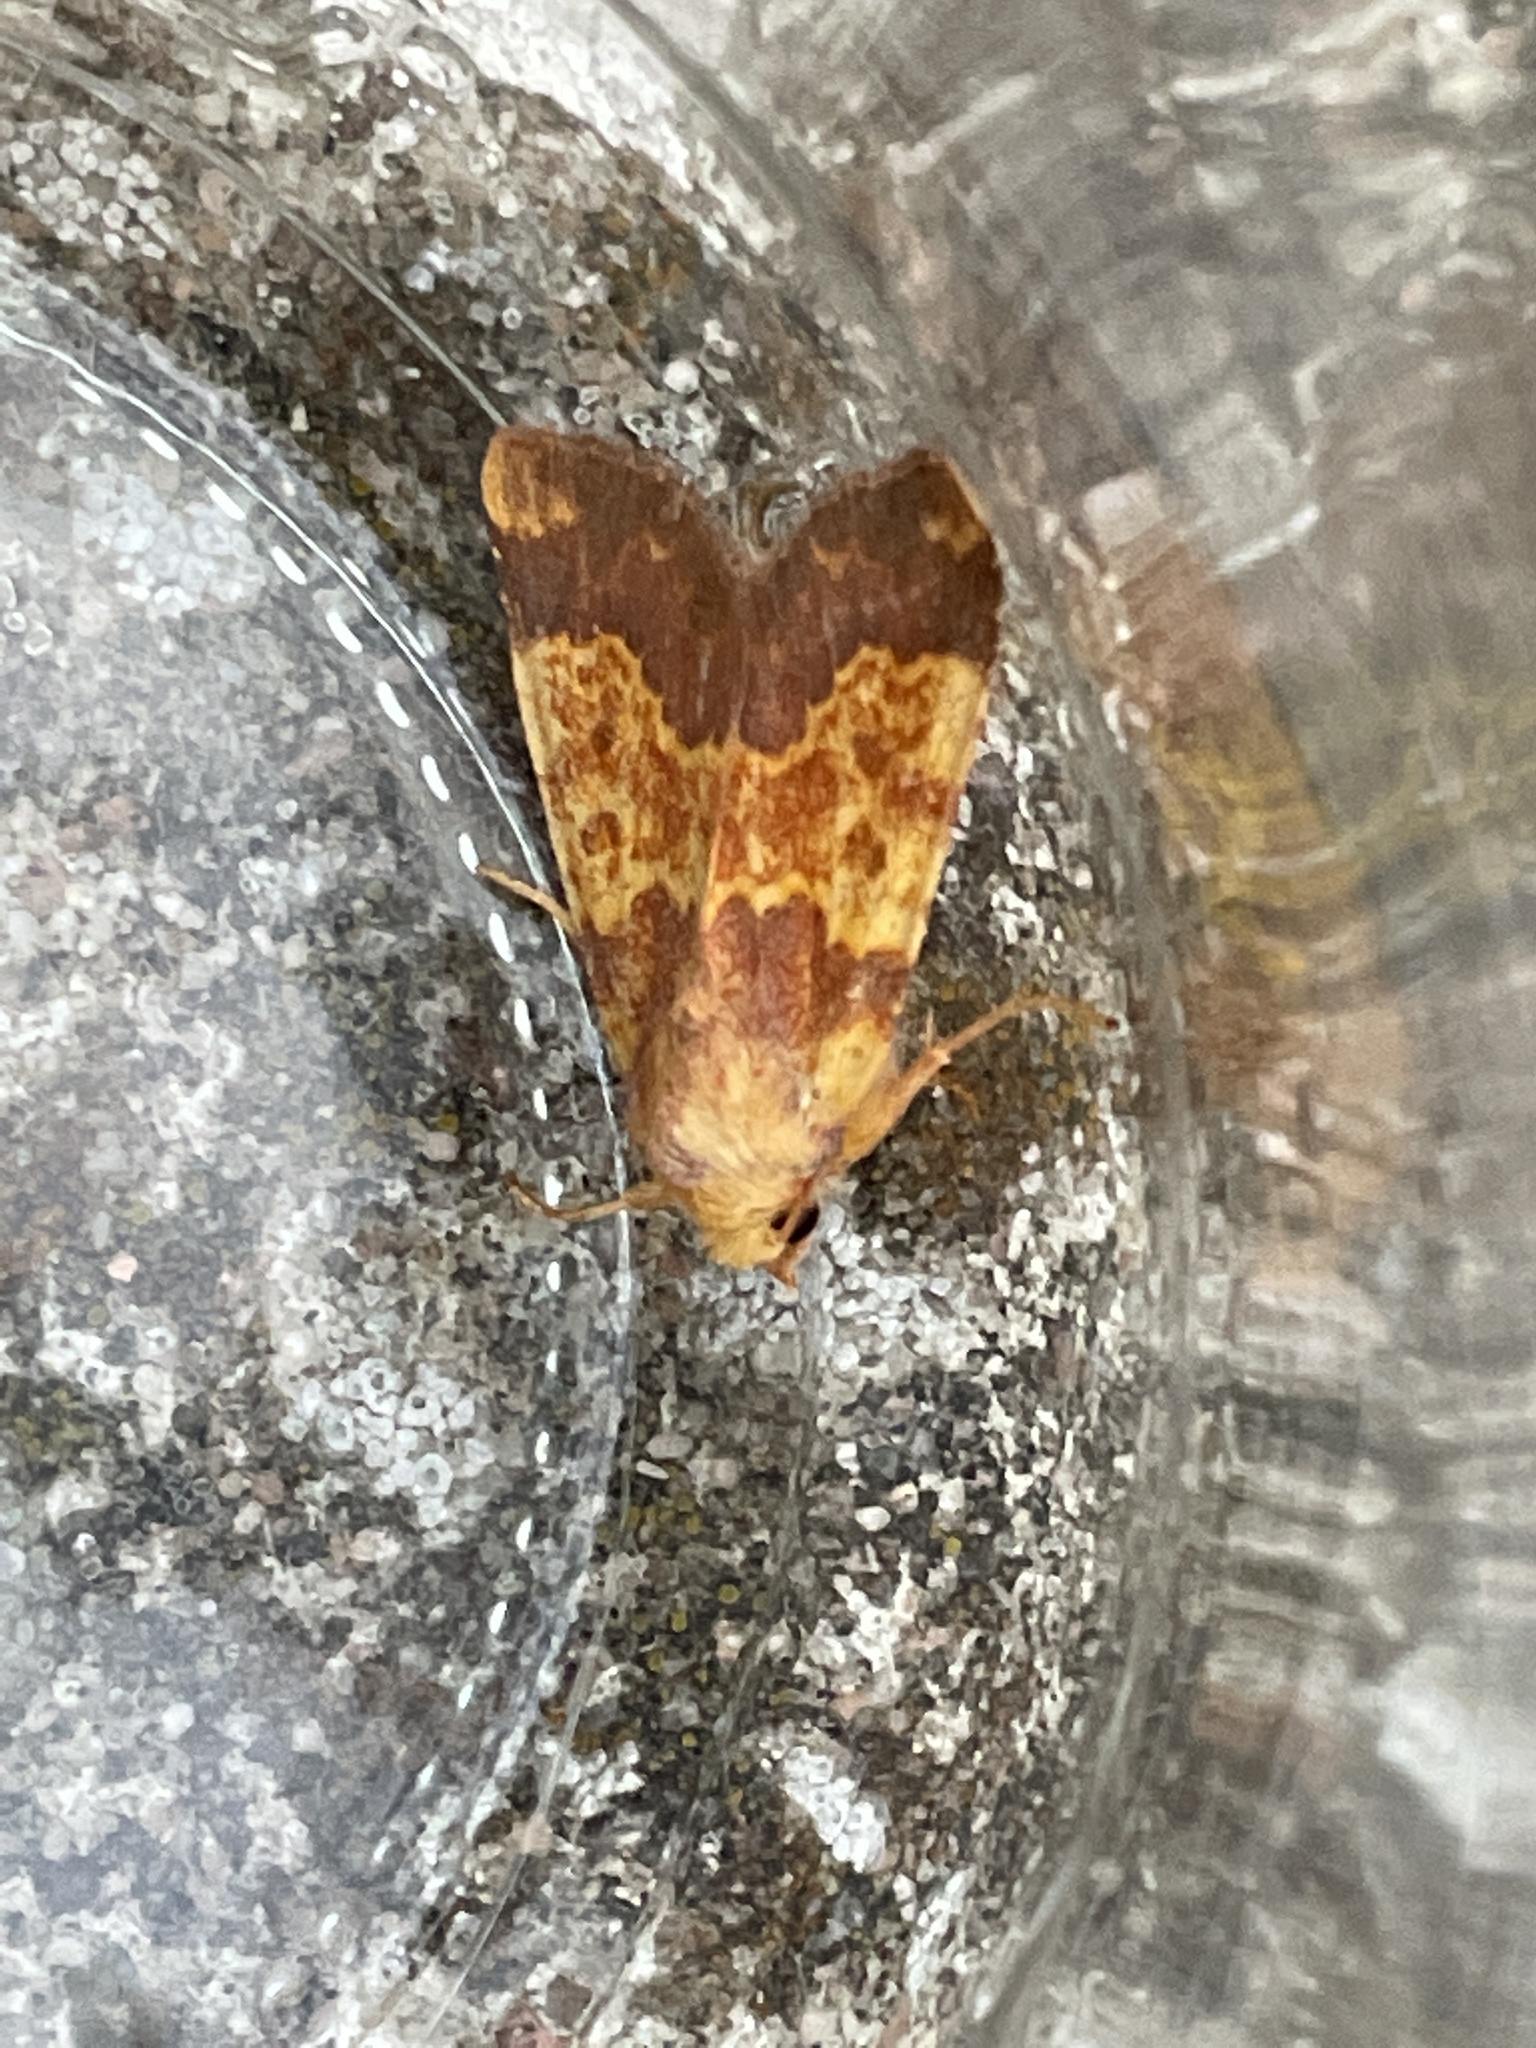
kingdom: Animalia
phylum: Arthropoda
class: Insecta
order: Lepidoptera
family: Noctuidae
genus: Tiliacea
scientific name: Tiliacea aurago
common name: Barred sallow
